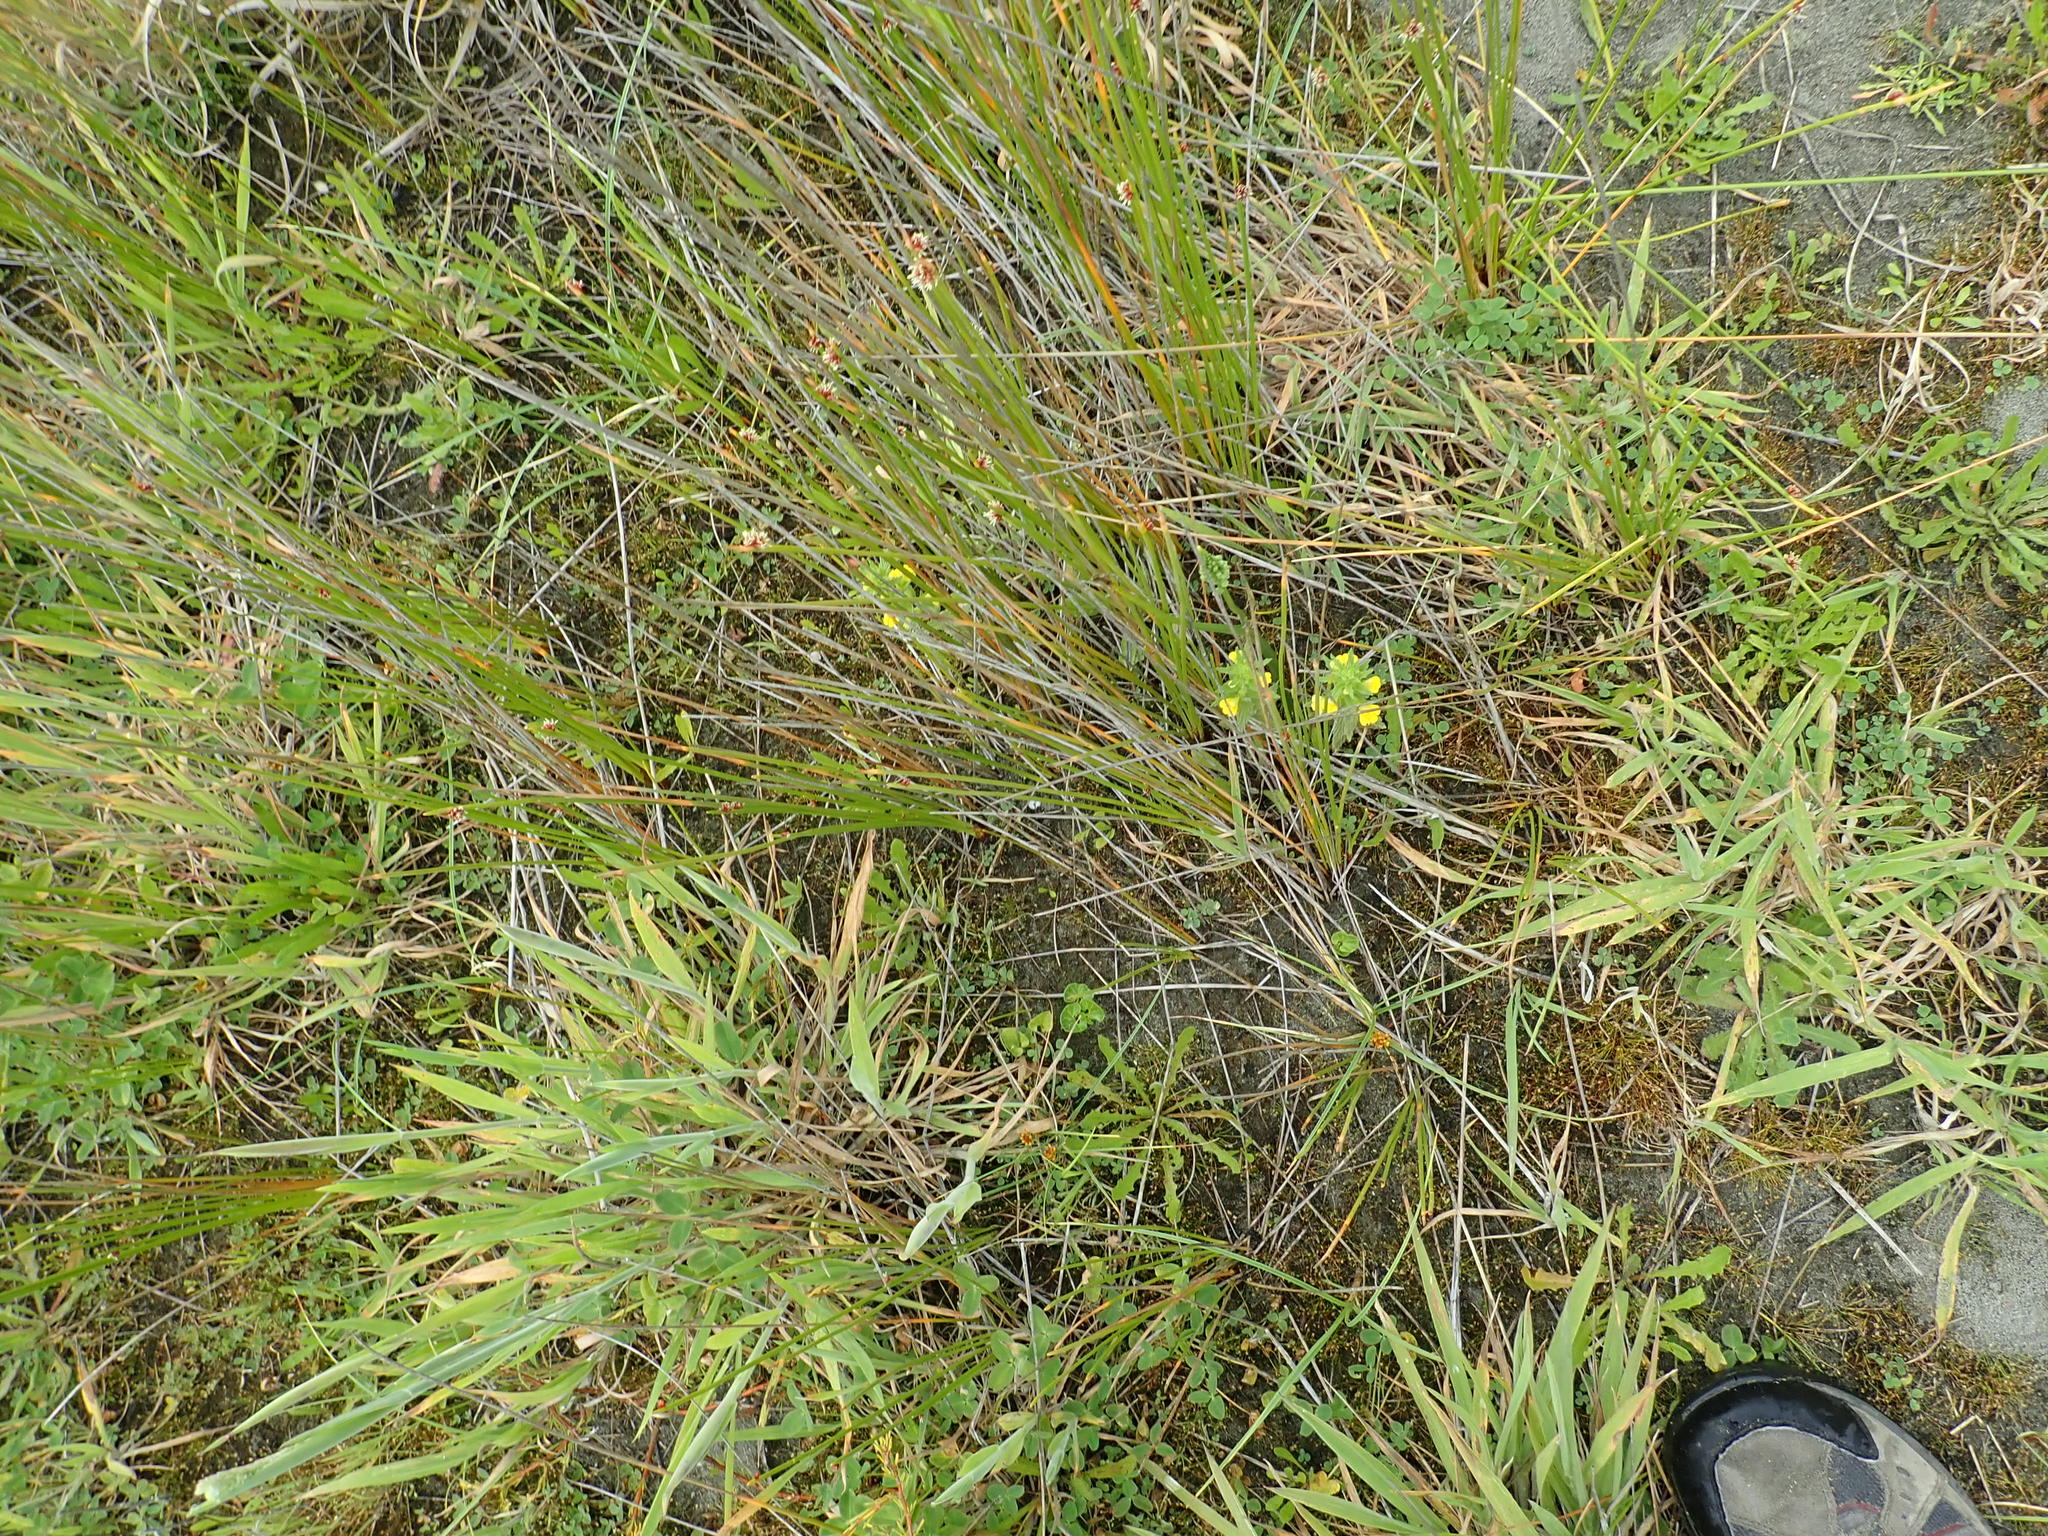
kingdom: Plantae
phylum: Tracheophyta
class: Magnoliopsida
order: Lamiales
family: Orobanchaceae
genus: Bellardia
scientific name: Bellardia viscosa
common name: Sticky parentucellia
